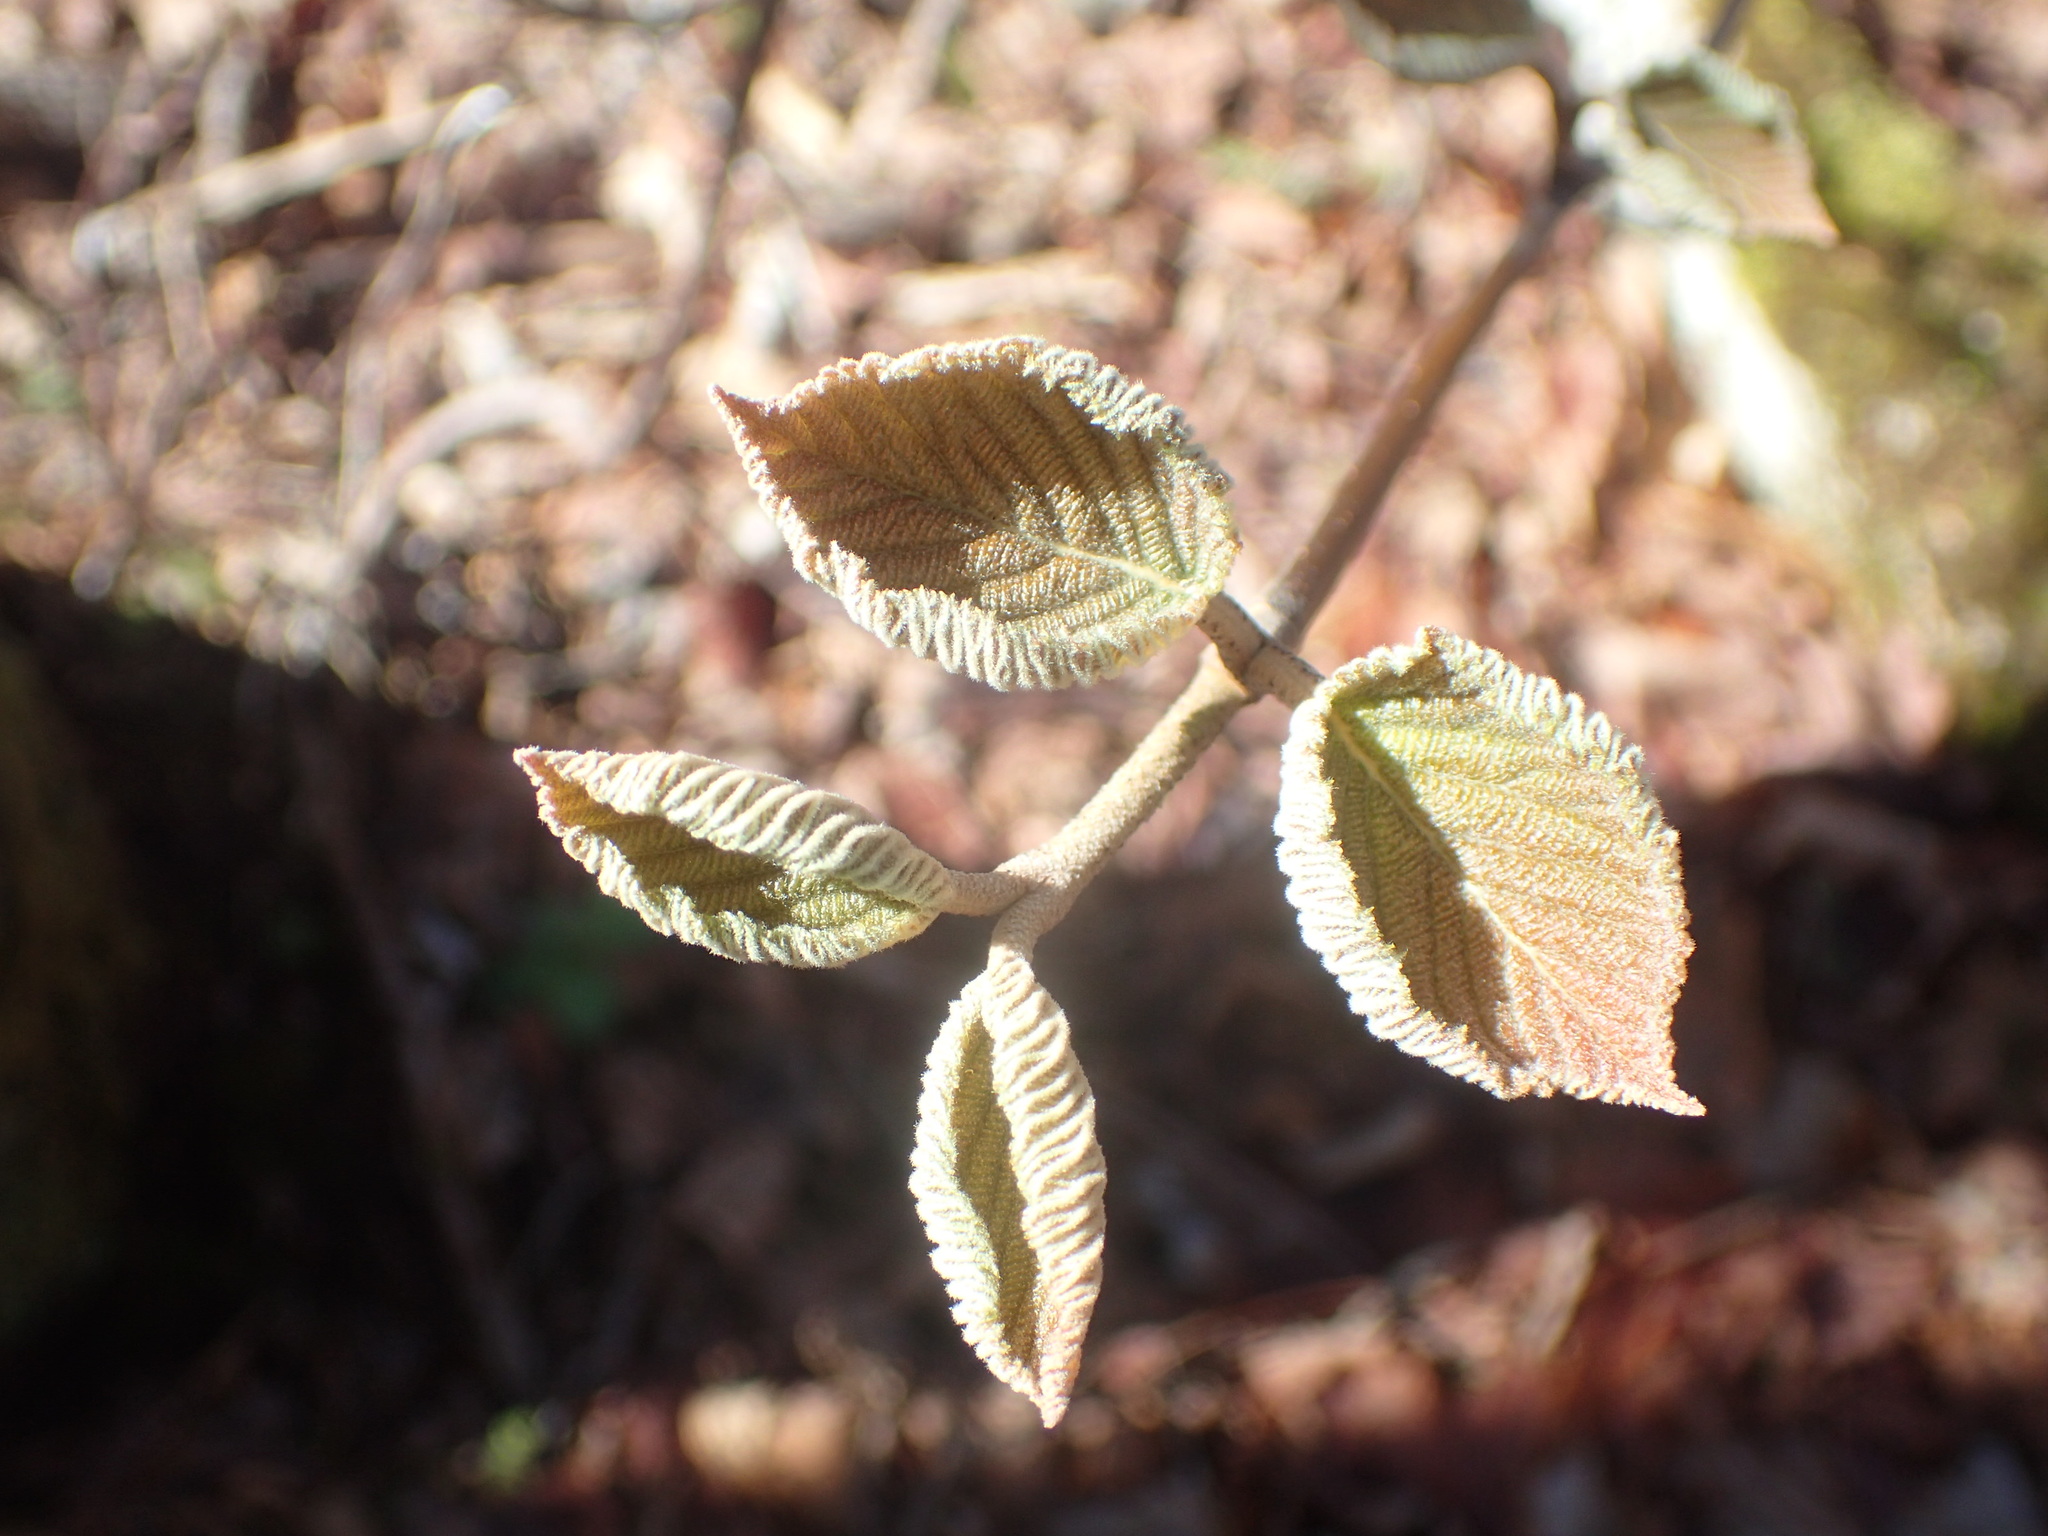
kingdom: Plantae
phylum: Tracheophyta
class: Magnoliopsida
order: Dipsacales
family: Viburnaceae
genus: Viburnum
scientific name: Viburnum lantanoides
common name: Hobblebush
